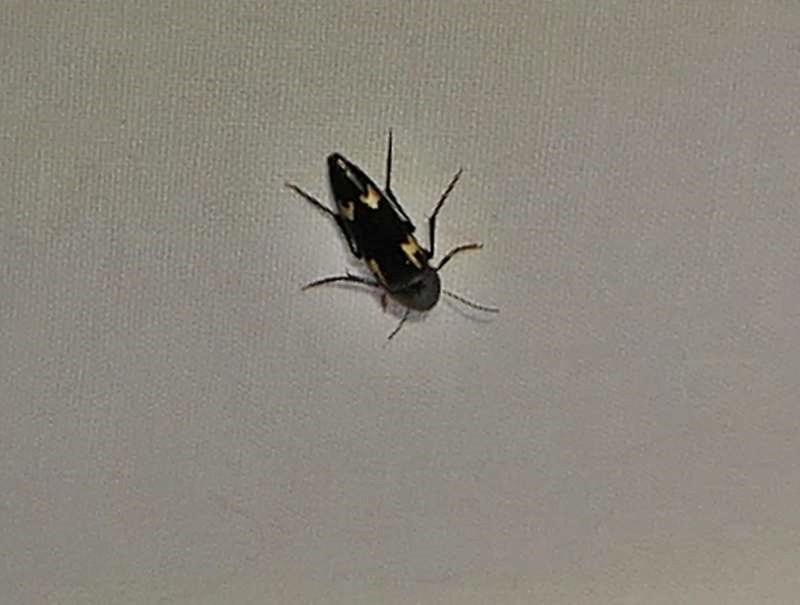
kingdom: Animalia
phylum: Arthropoda
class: Insecta
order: Coleoptera
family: Melandryidae
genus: Dircaea
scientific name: Dircaea liturata
